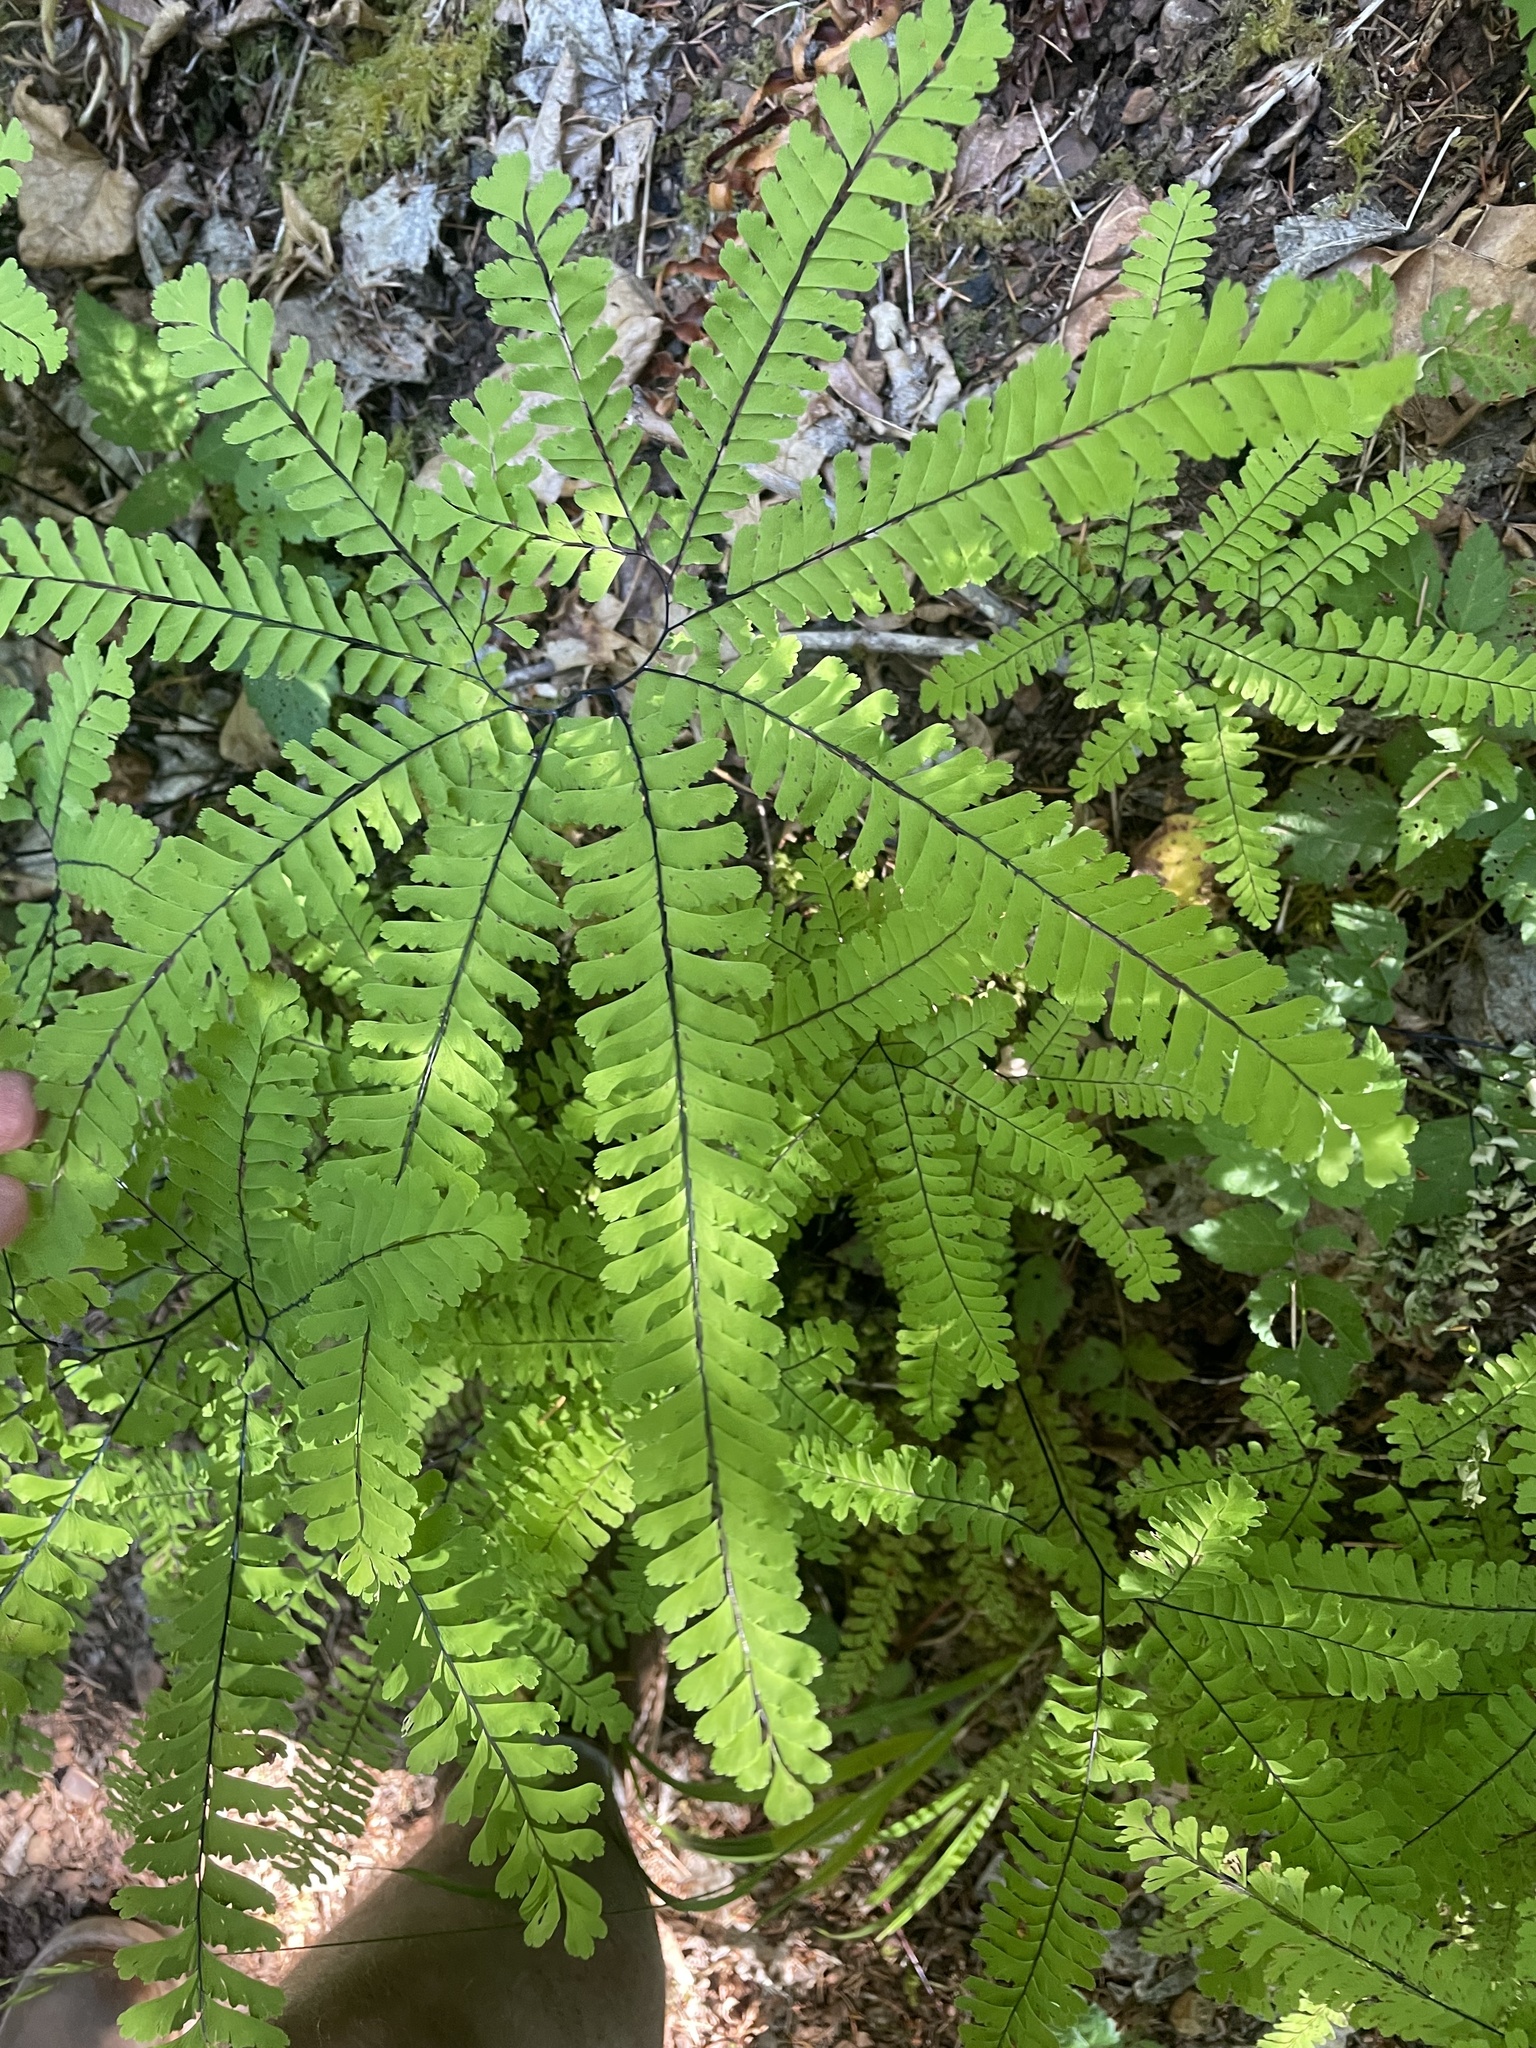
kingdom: Plantae
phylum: Tracheophyta
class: Polypodiopsida
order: Polypodiales
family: Pteridaceae
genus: Adiantum
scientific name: Adiantum aleuticum
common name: Aleutian maidenhair fern
